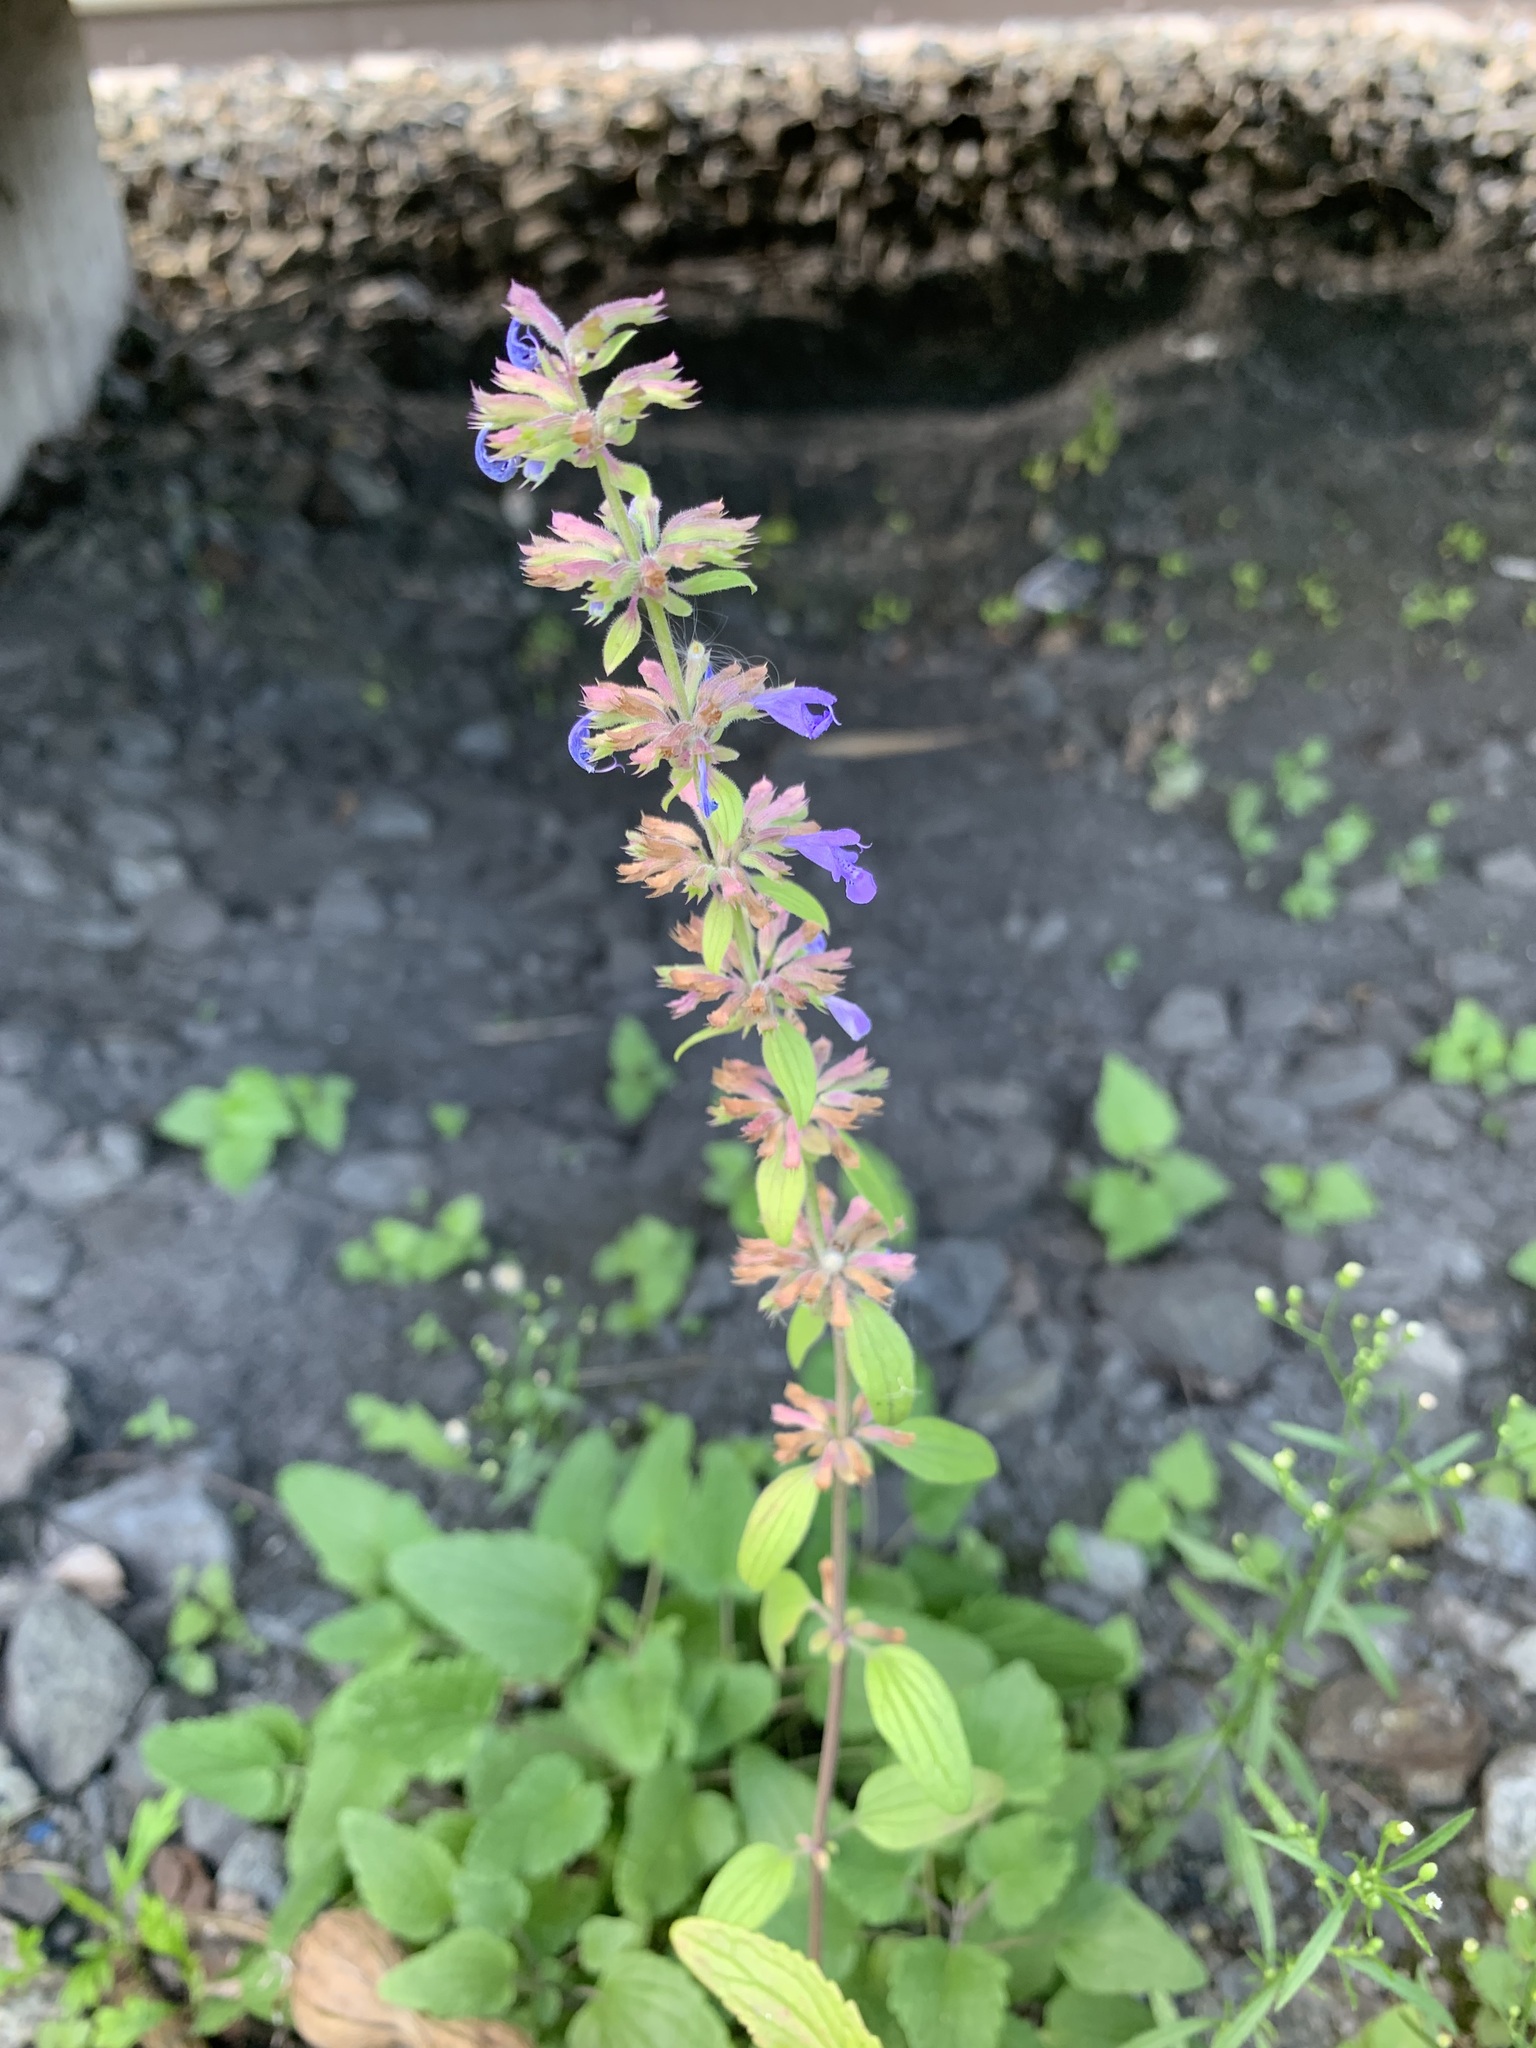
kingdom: Plantae
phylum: Tracheophyta
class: Magnoliopsida
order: Lamiales
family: Lamiaceae
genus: Dracocephalum
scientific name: Dracocephalum nutans
